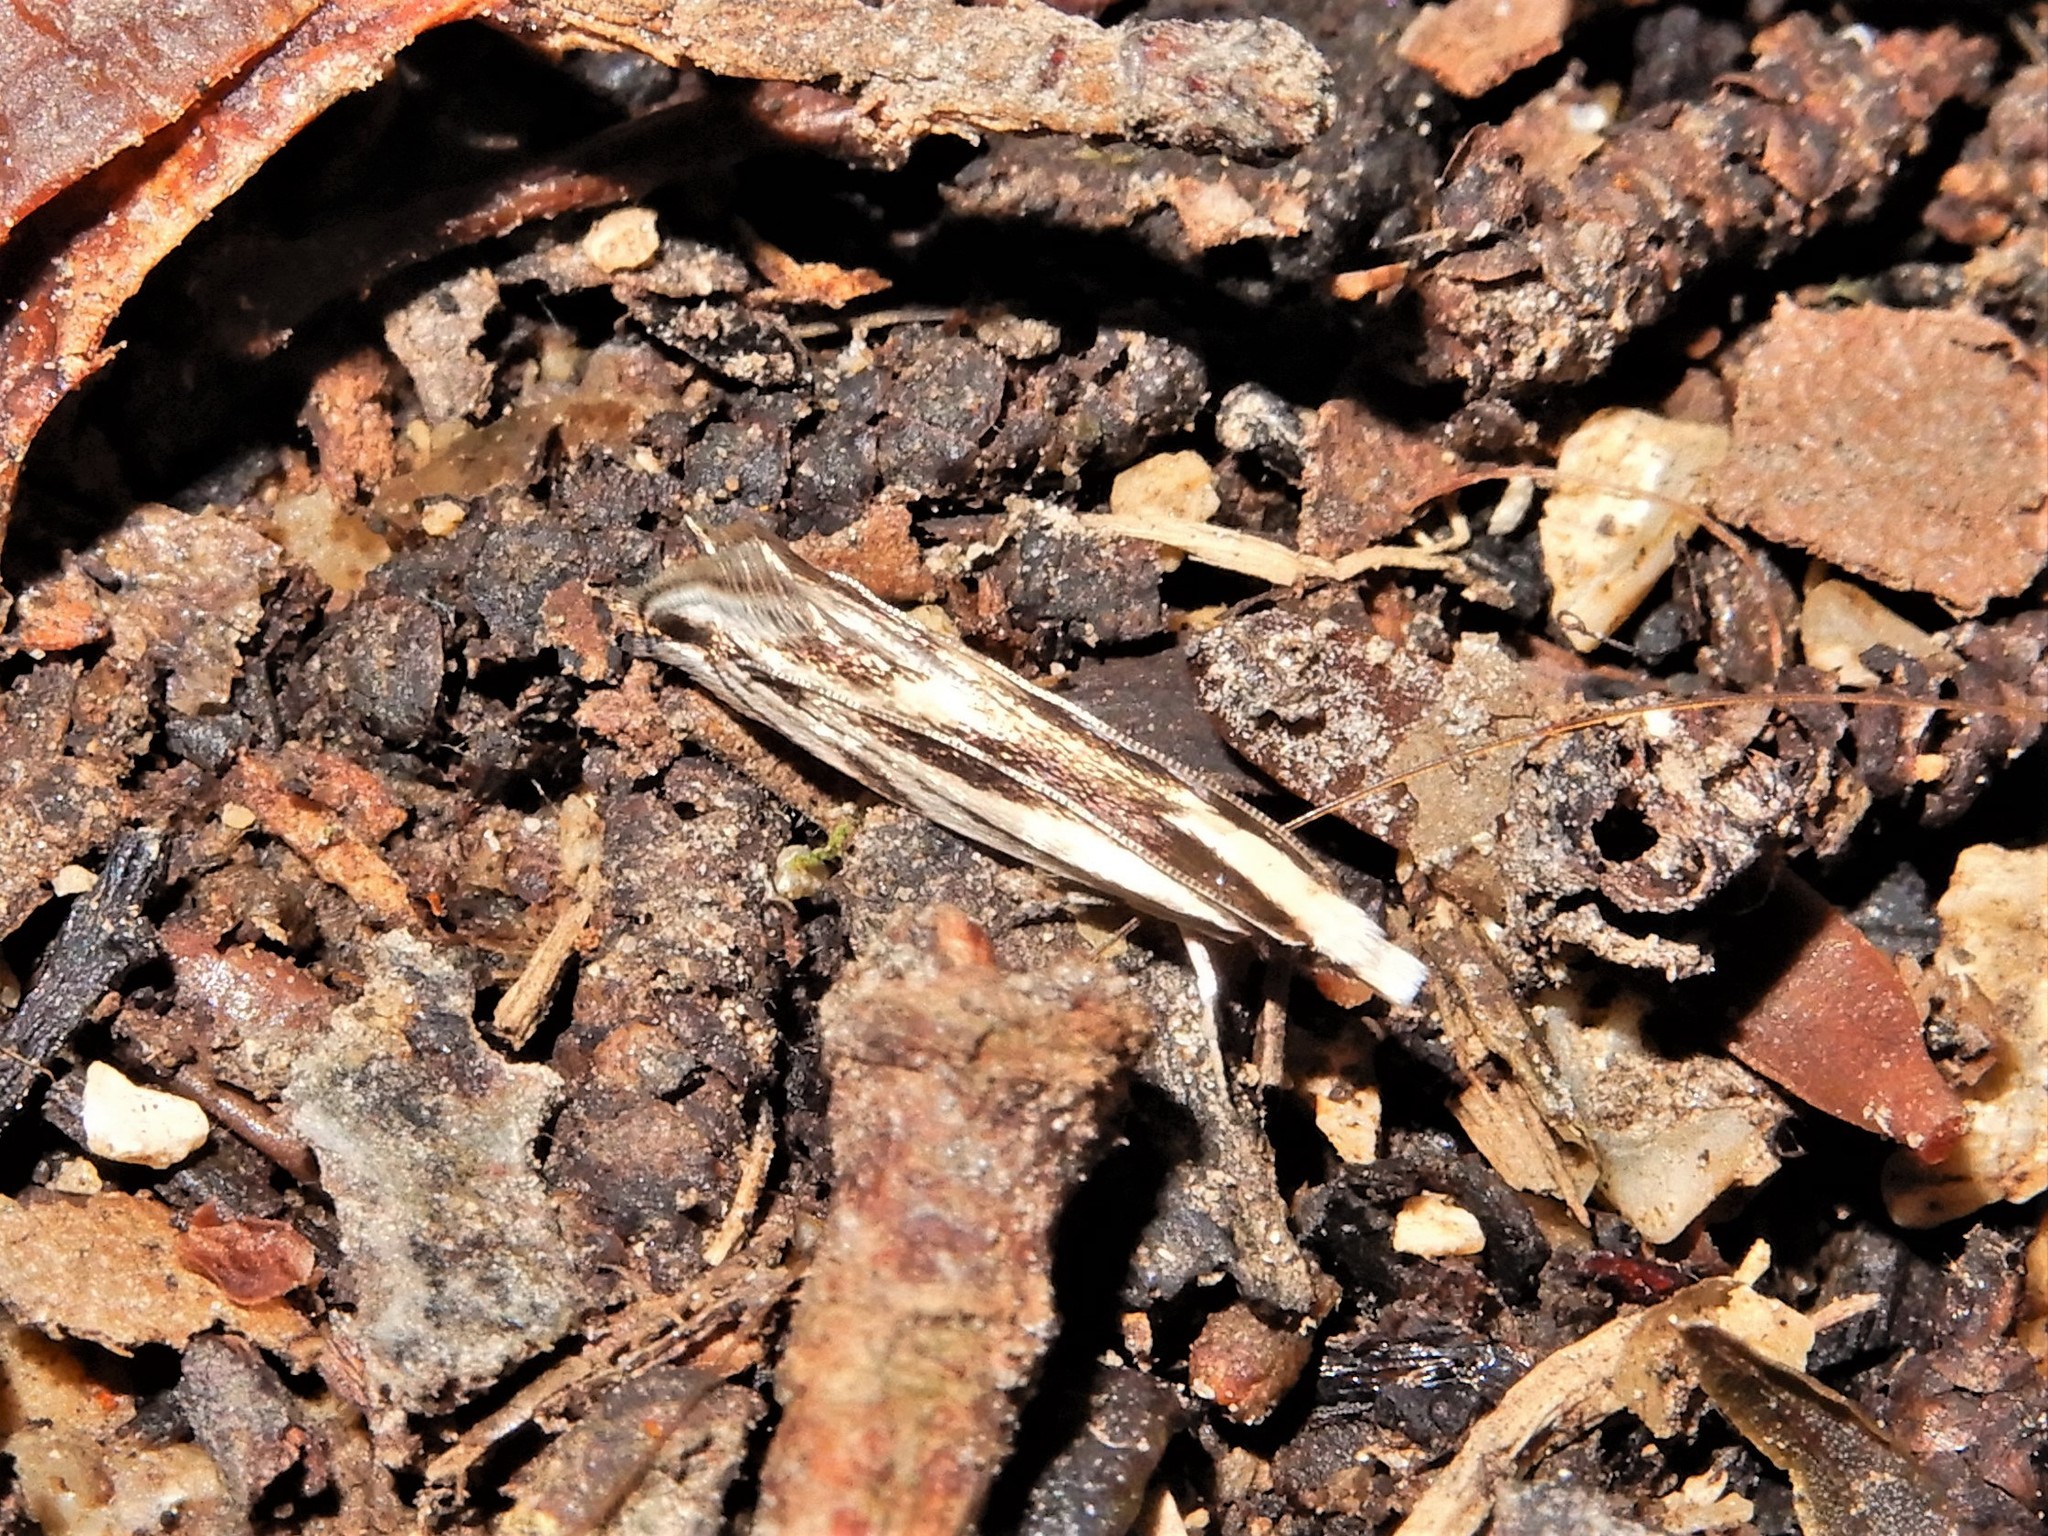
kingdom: Animalia
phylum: Arthropoda
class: Insecta
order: Lepidoptera
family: Tineidae
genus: Erechthias
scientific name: Erechthias chasmatias
